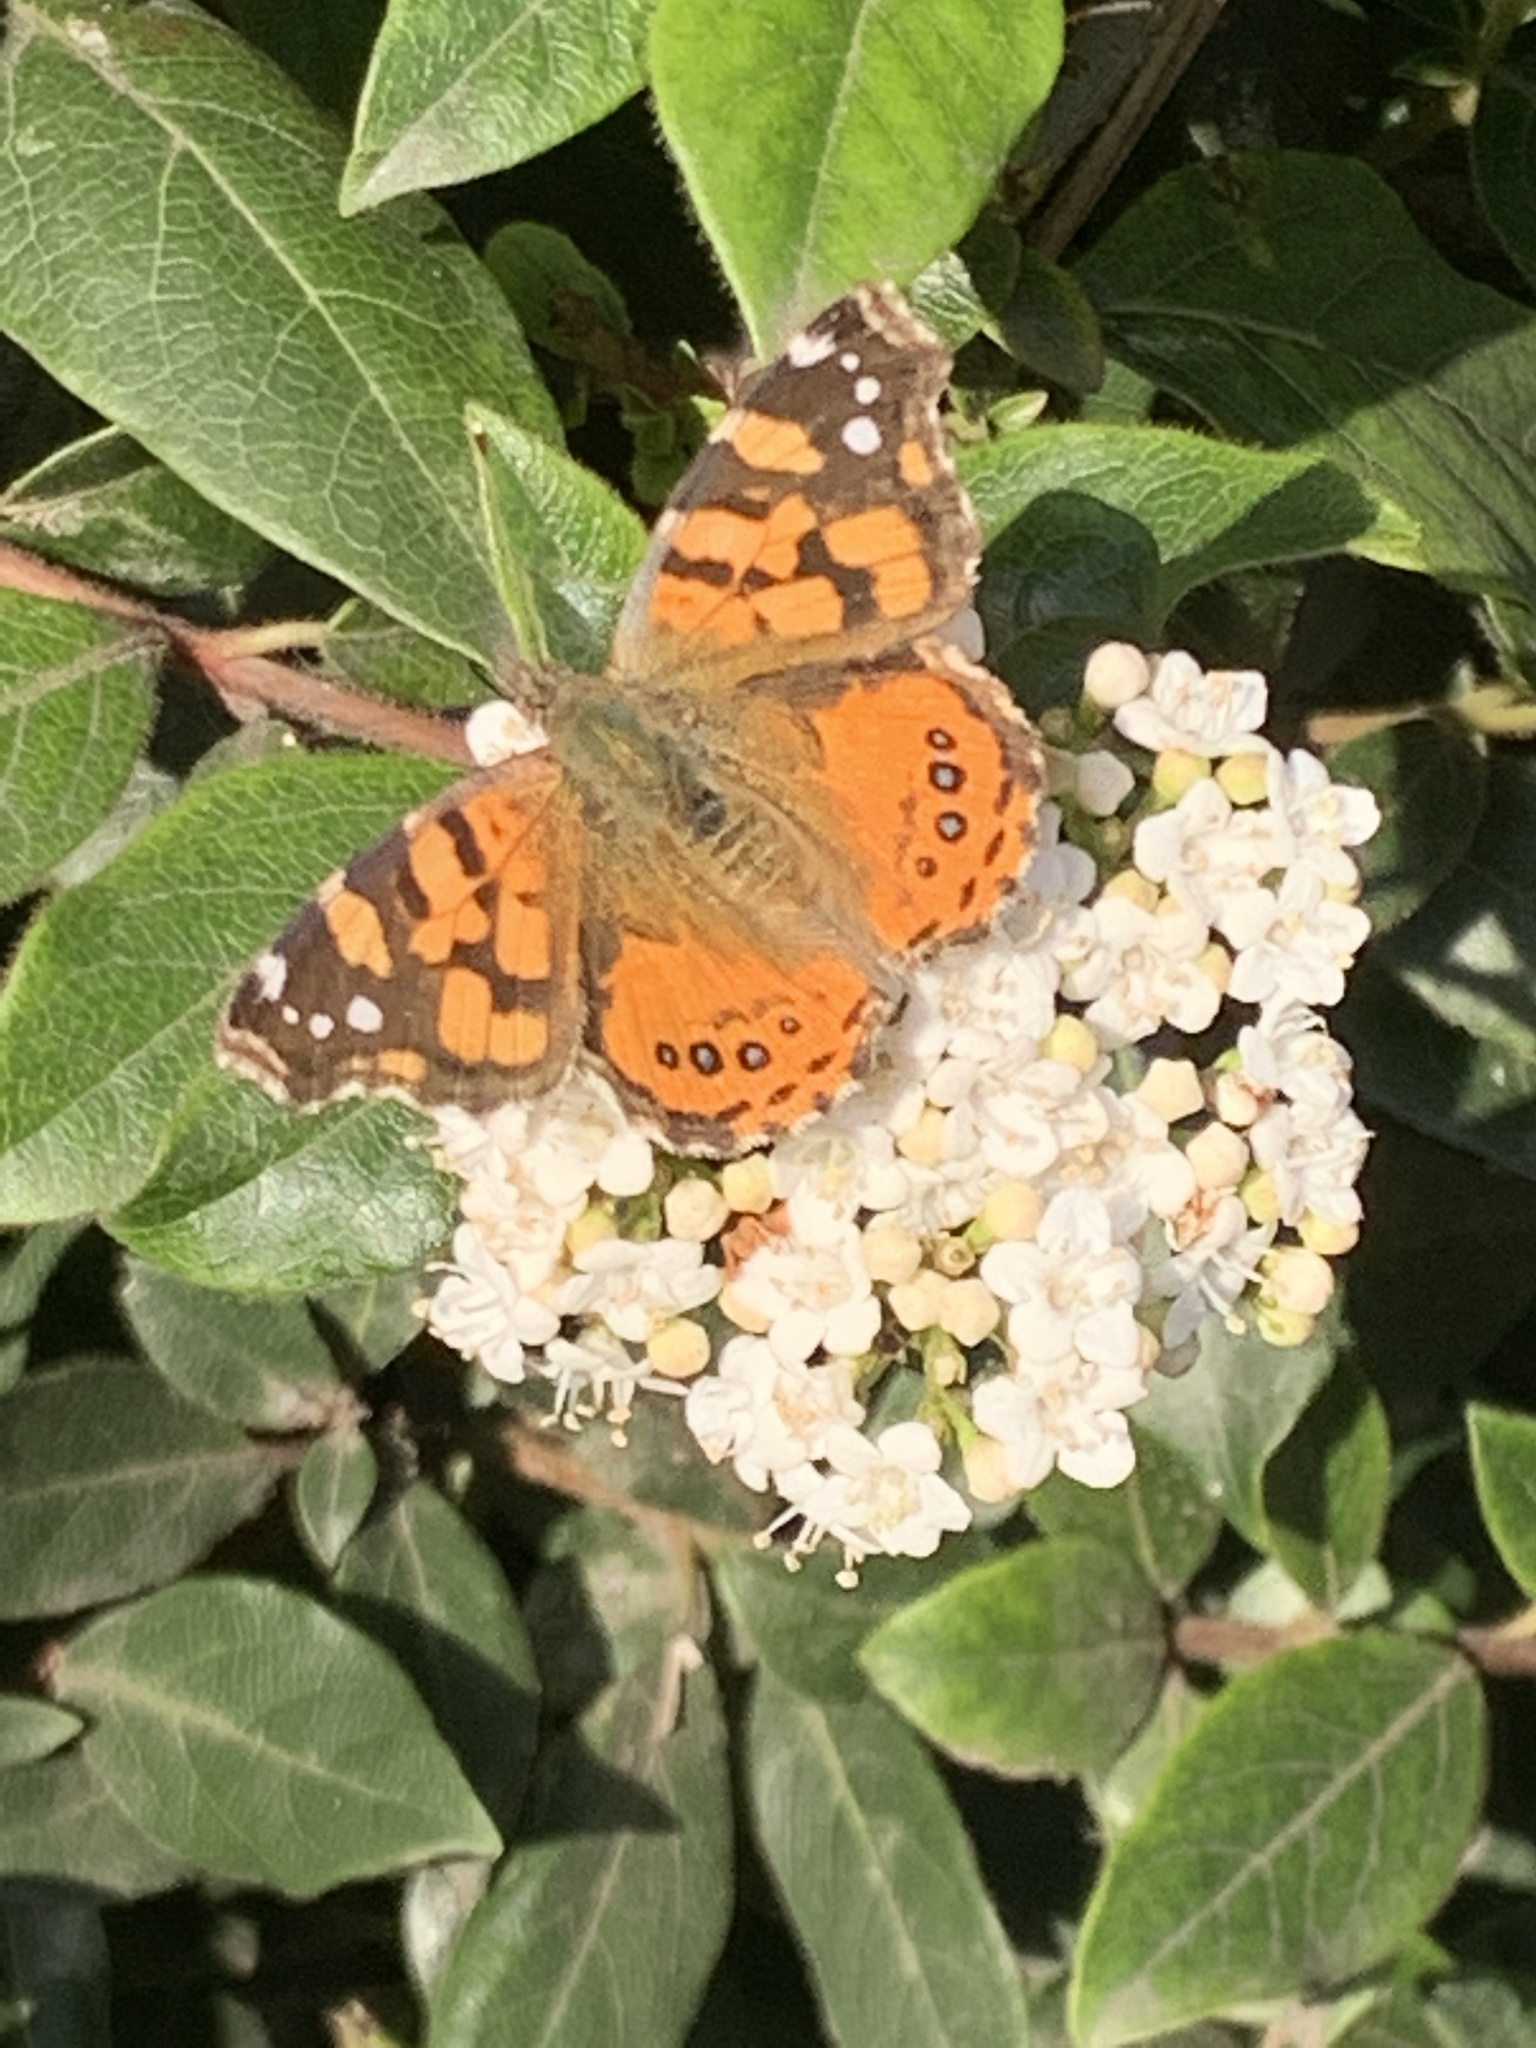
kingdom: Animalia
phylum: Arthropoda
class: Insecta
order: Lepidoptera
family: Nymphalidae
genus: Vanessa
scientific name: Vanessa carye
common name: Subtropical lady
